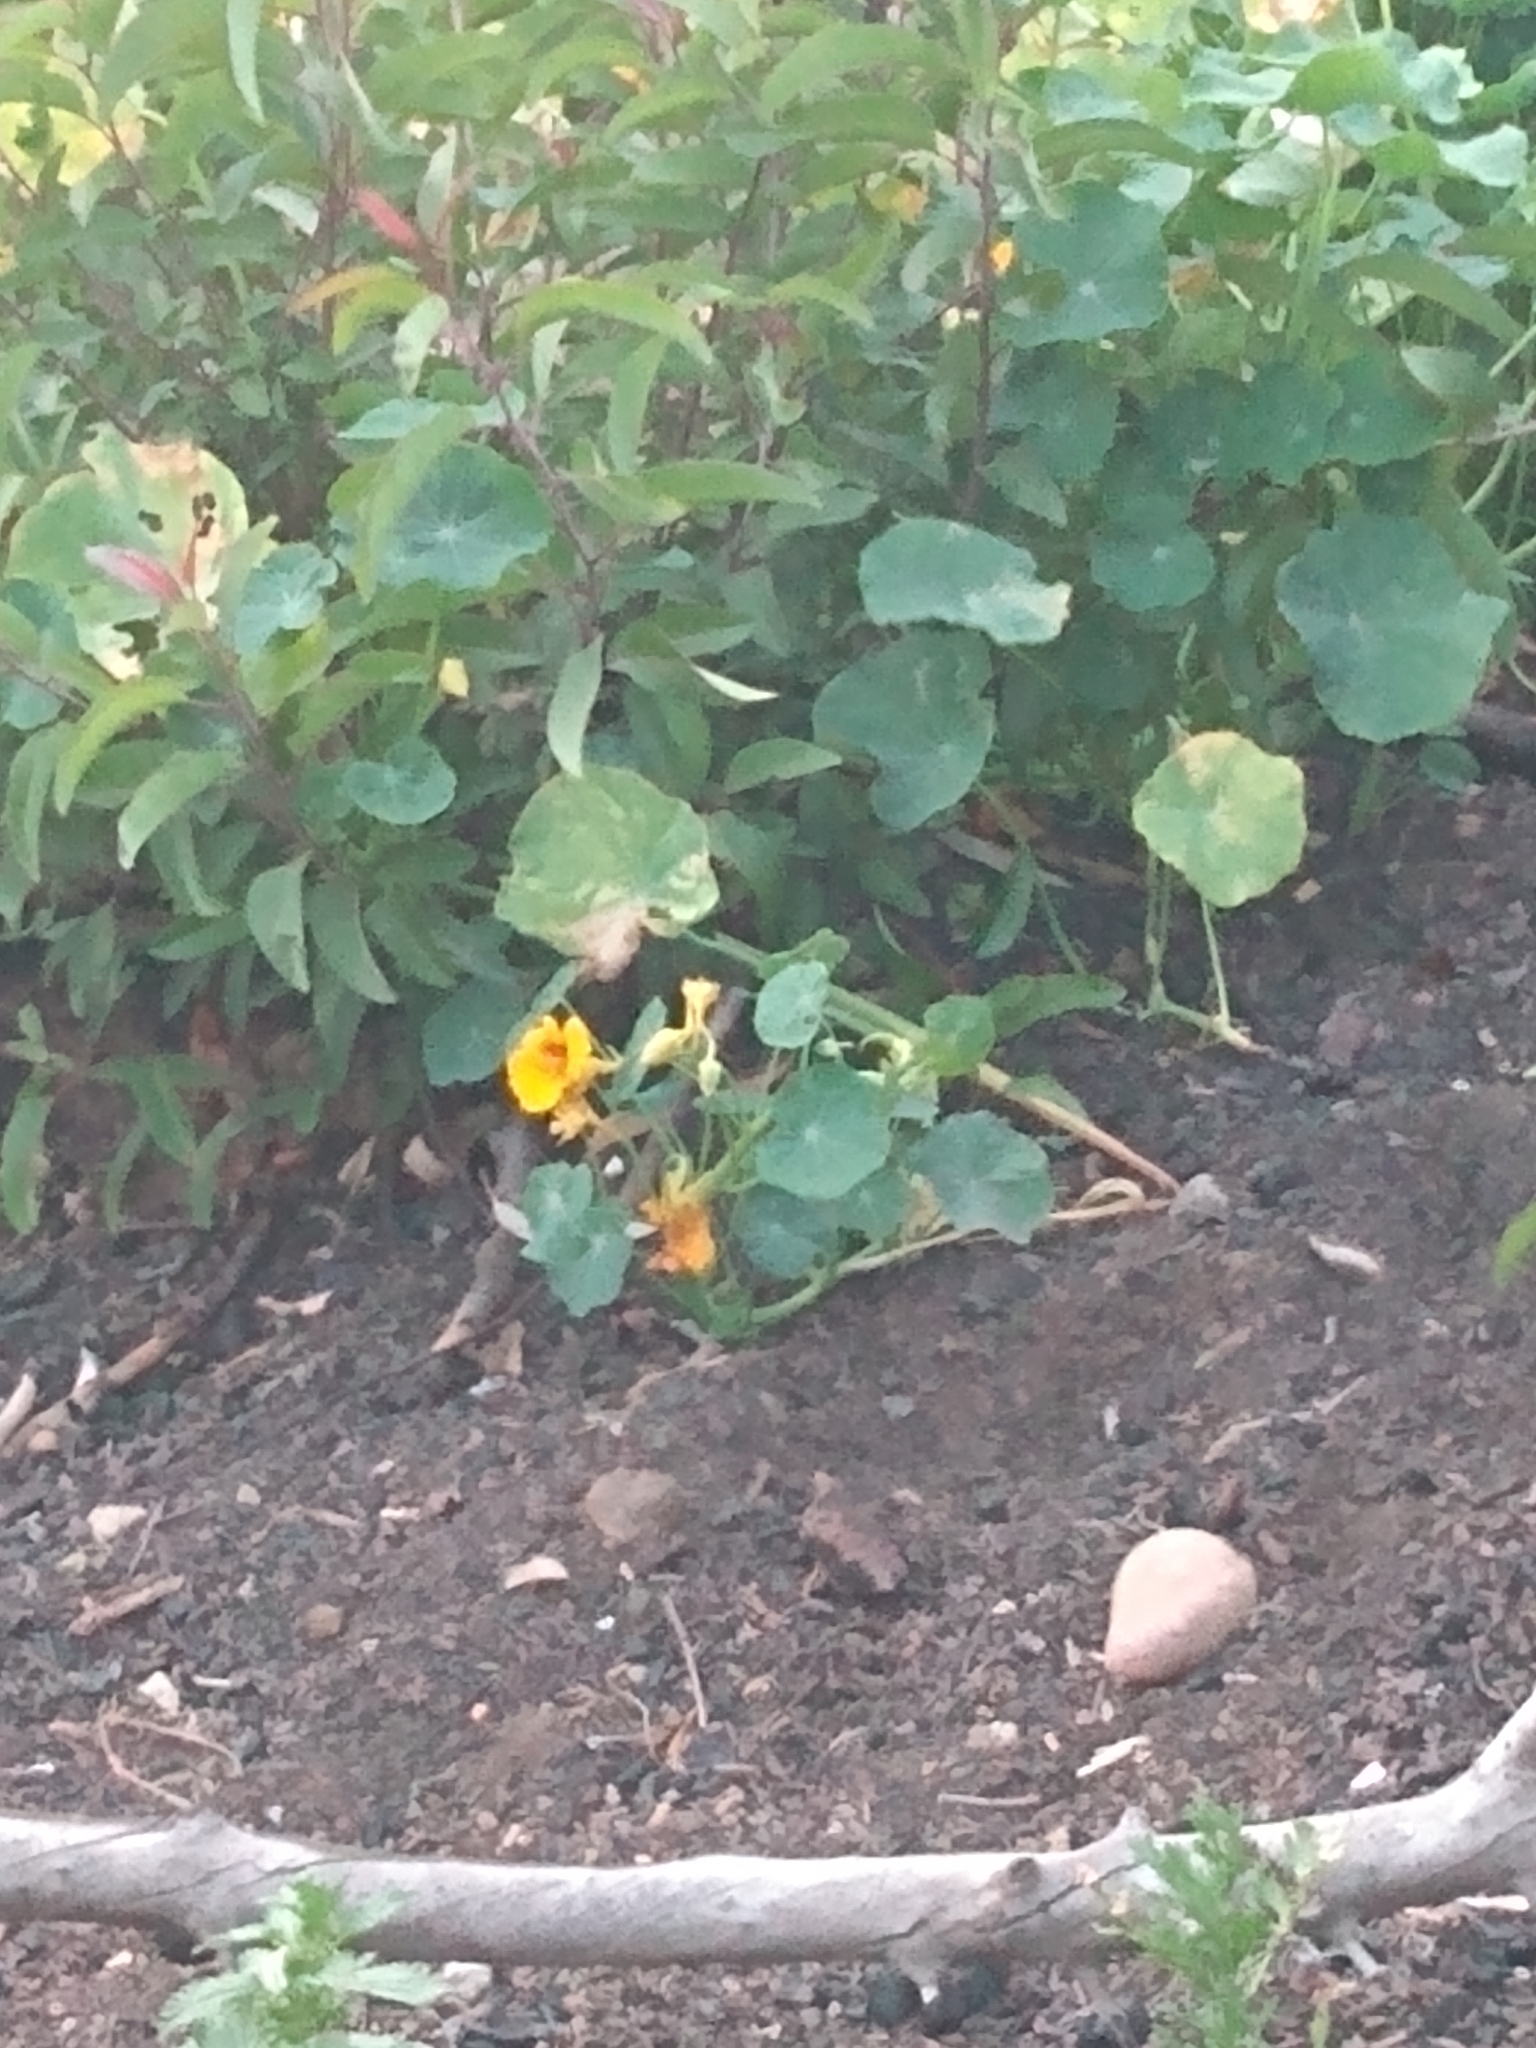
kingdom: Plantae
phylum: Tracheophyta
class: Magnoliopsida
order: Brassicales
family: Tropaeolaceae
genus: Tropaeolum
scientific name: Tropaeolum majus
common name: Nasturtium
